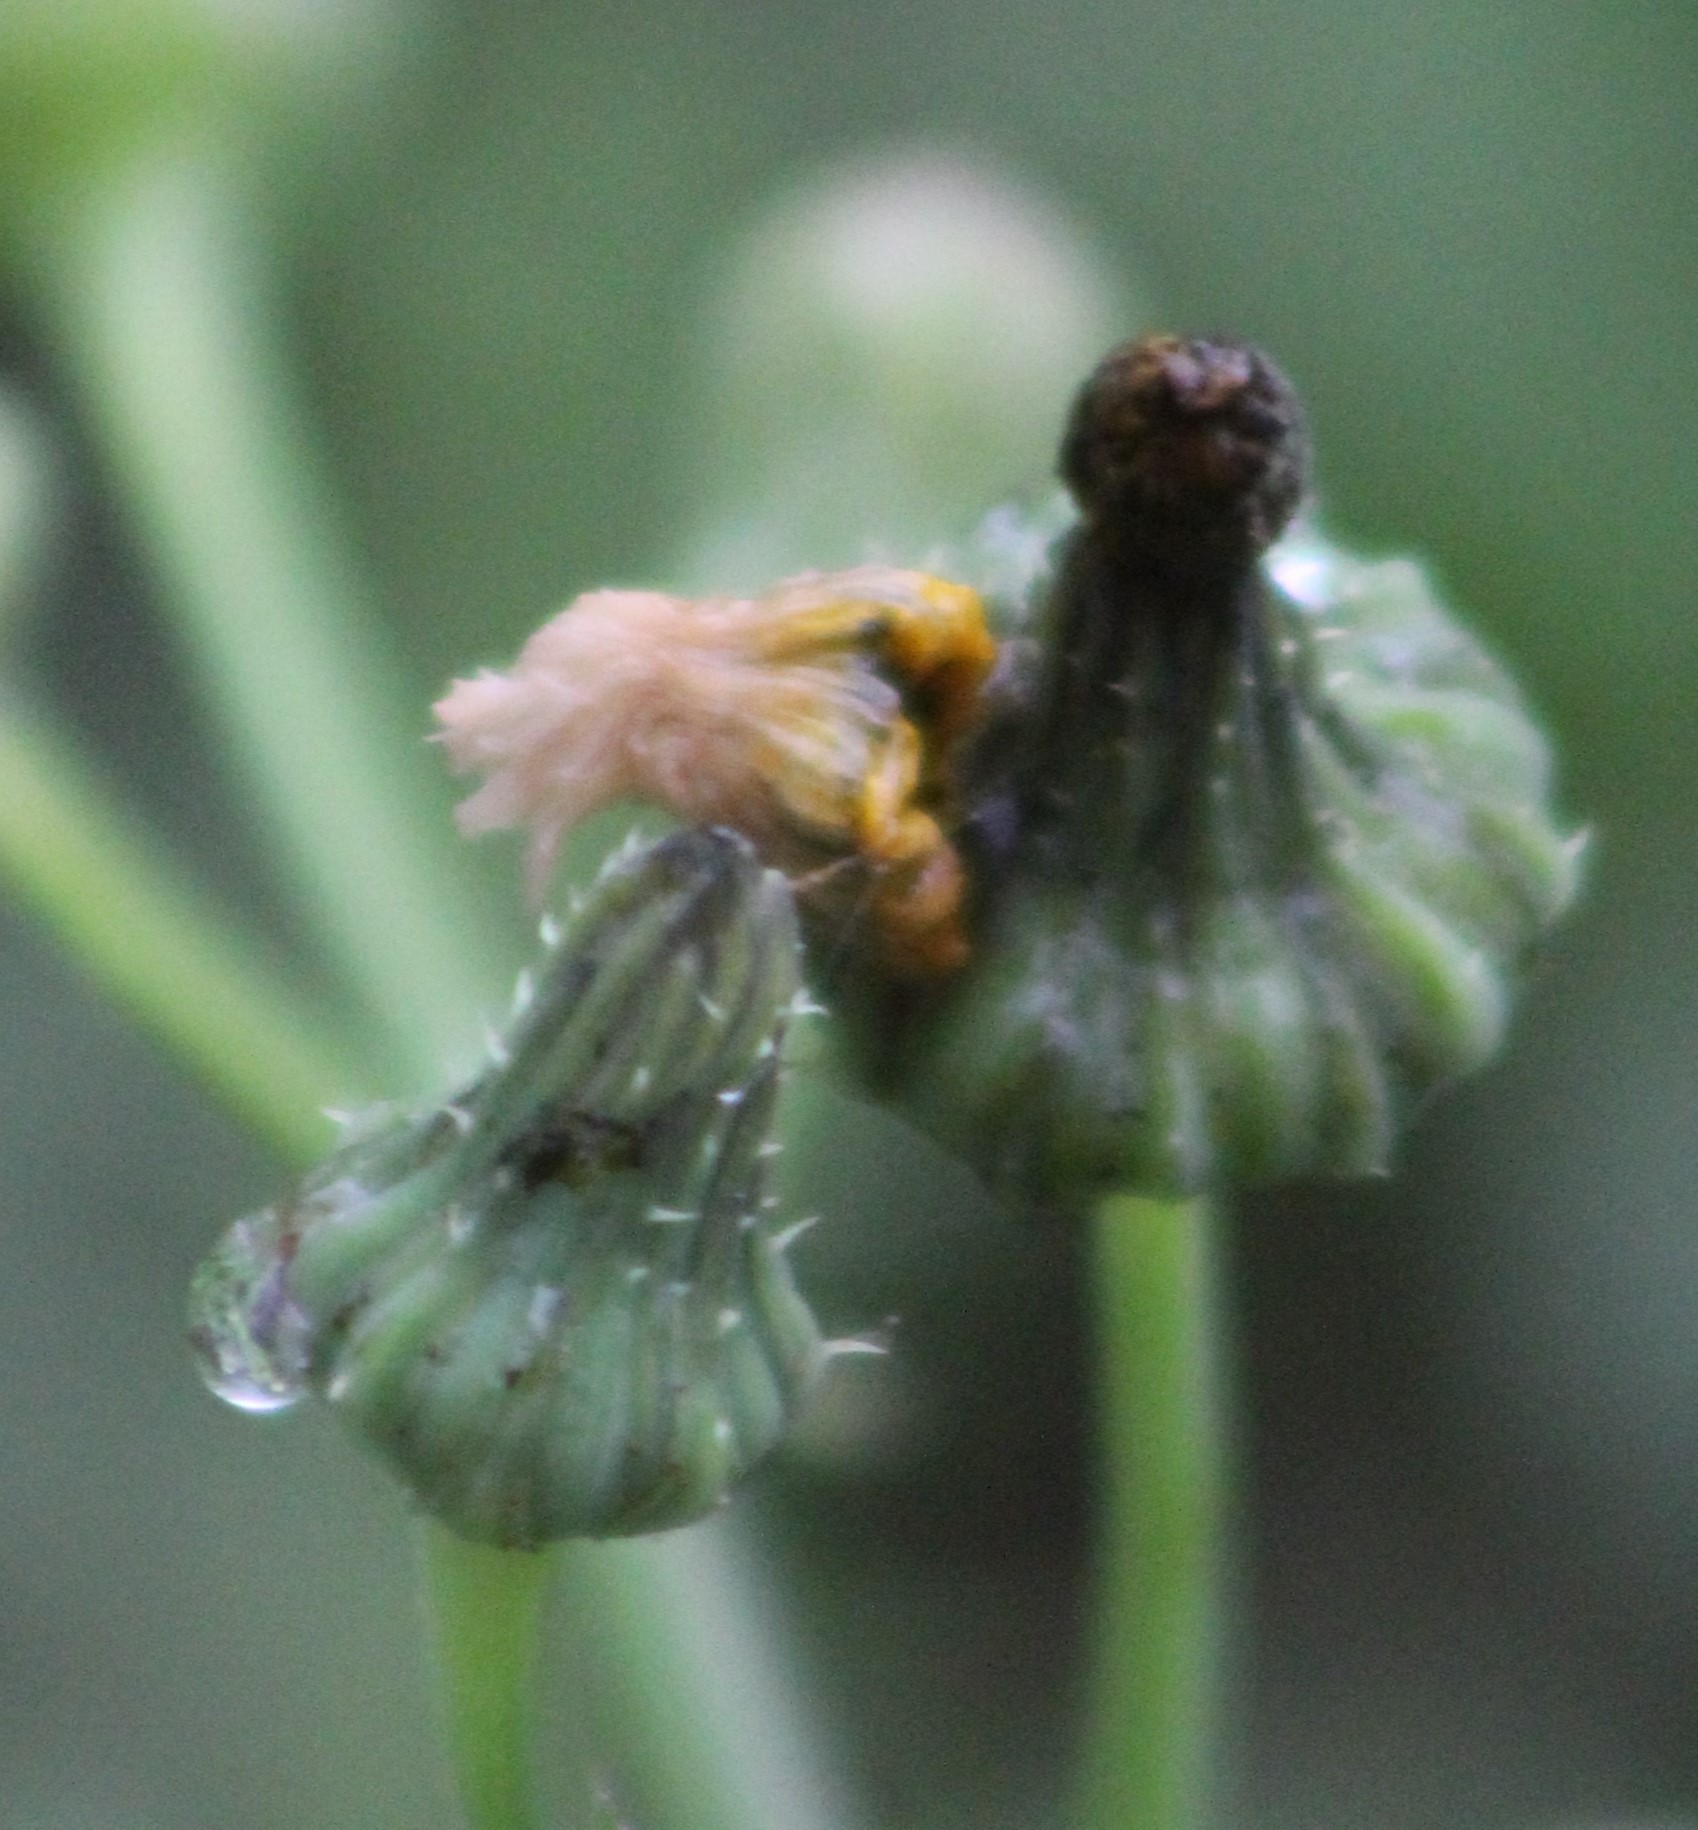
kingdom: Plantae
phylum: Tracheophyta
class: Magnoliopsida
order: Asterales
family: Asteraceae
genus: Sonchus
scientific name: Sonchus asper
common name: Prickly sow-thistle
